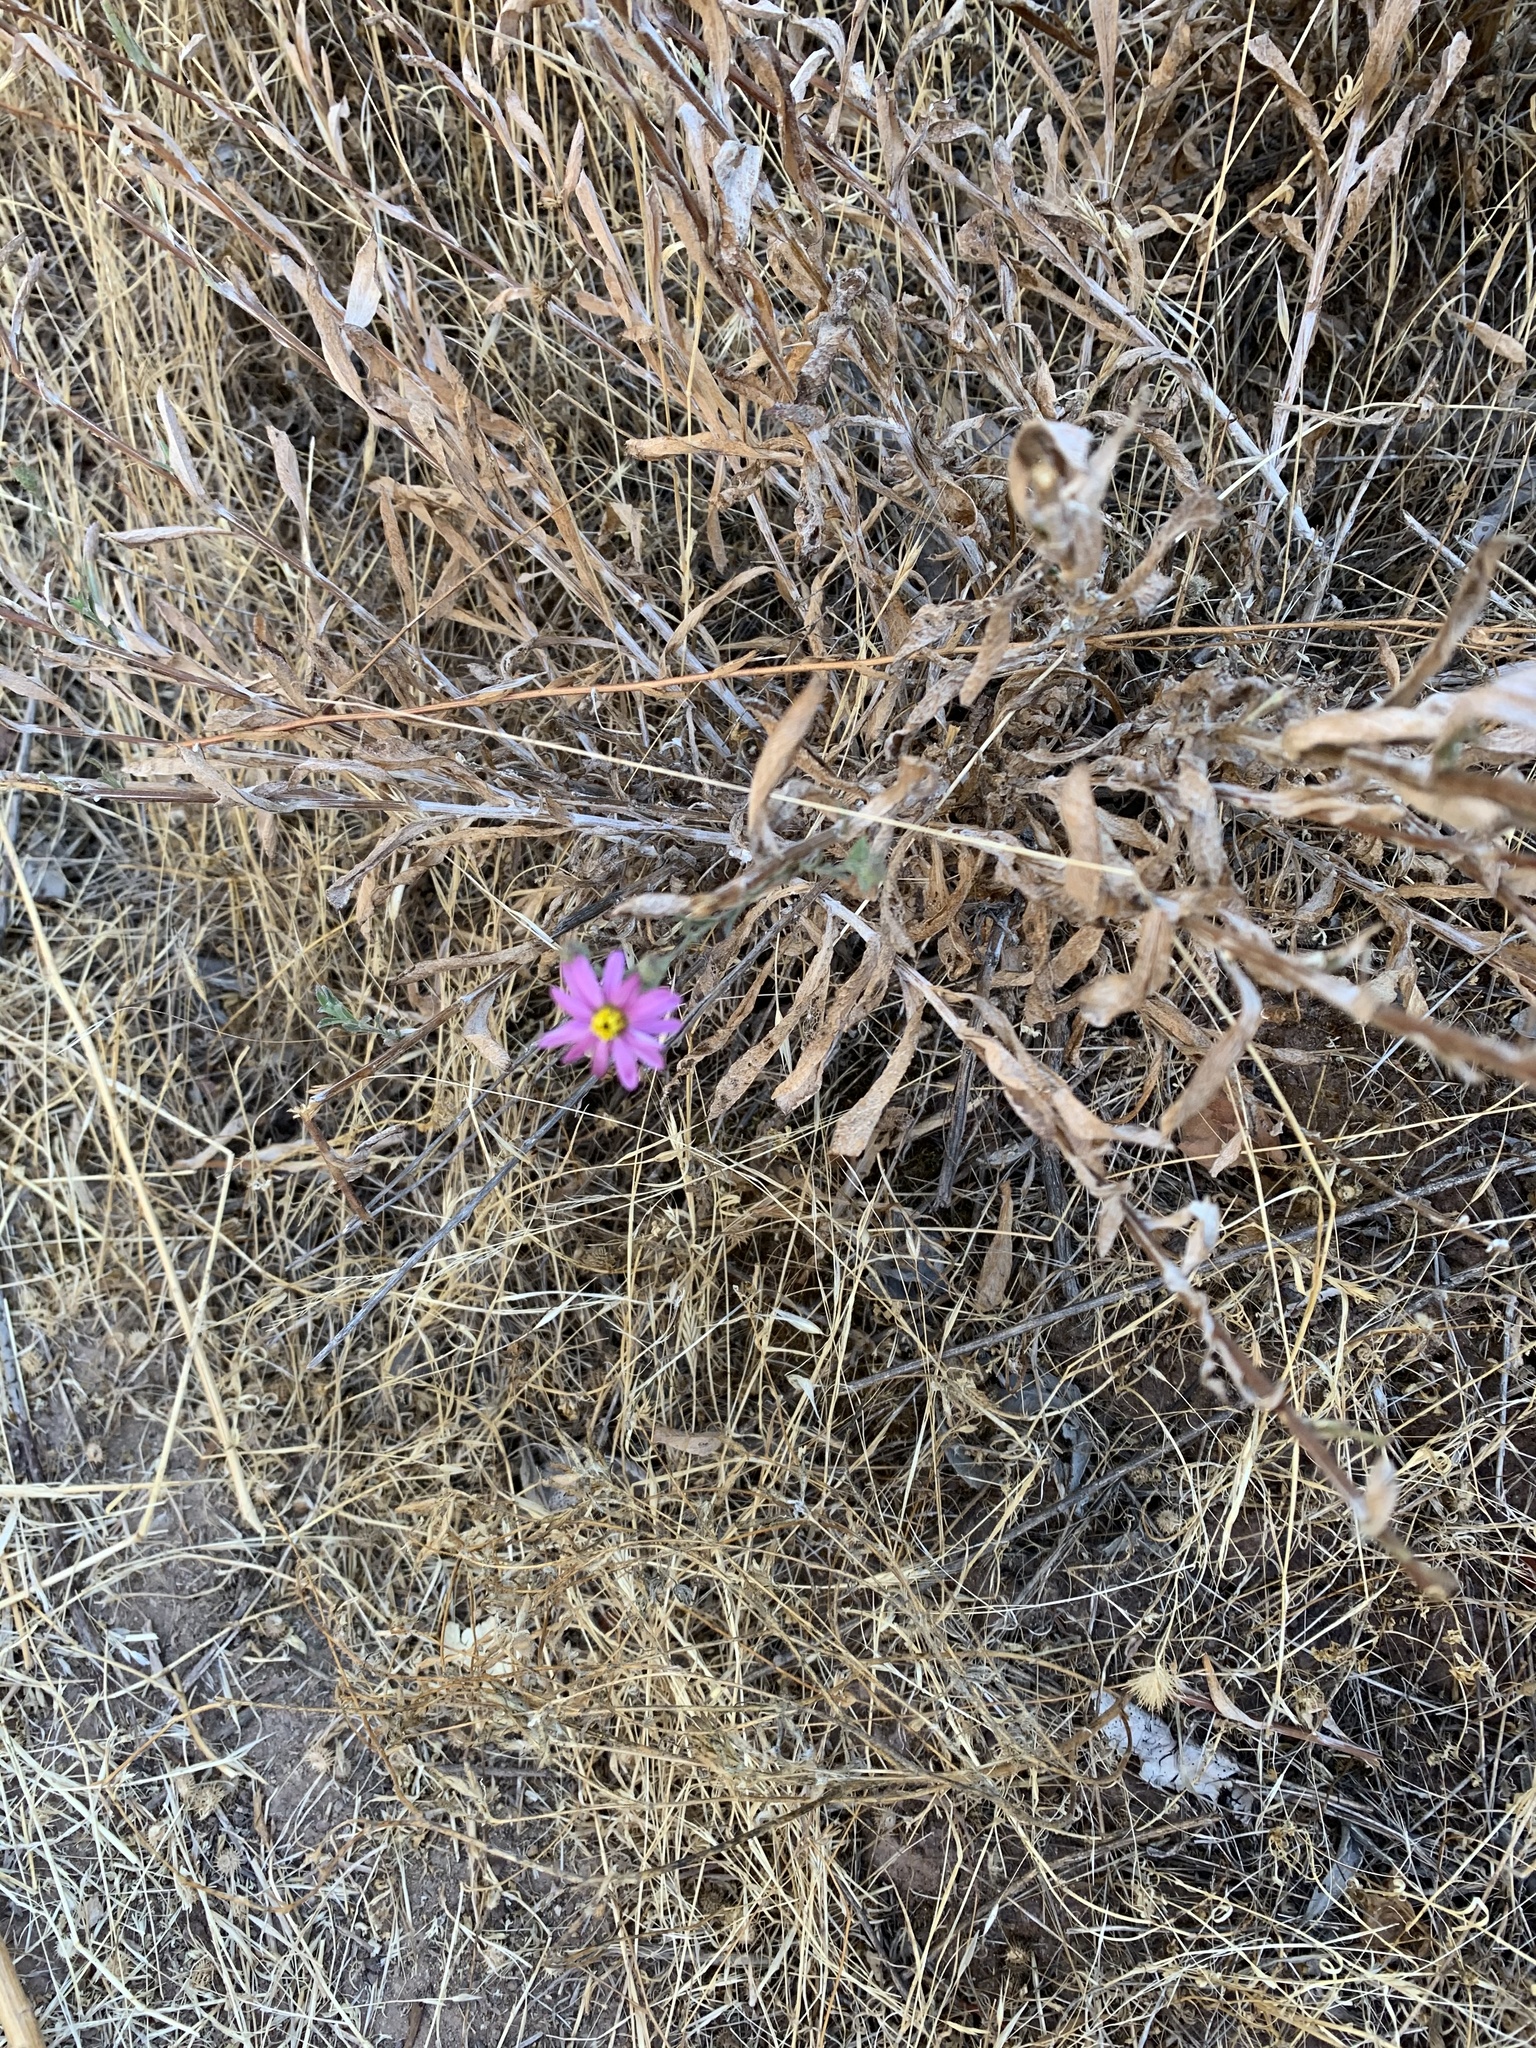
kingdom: Plantae
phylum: Tracheophyta
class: Magnoliopsida
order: Asterales
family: Asteraceae
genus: Corethrogyne
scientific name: Corethrogyne filaginifolia
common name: Sand-aster
